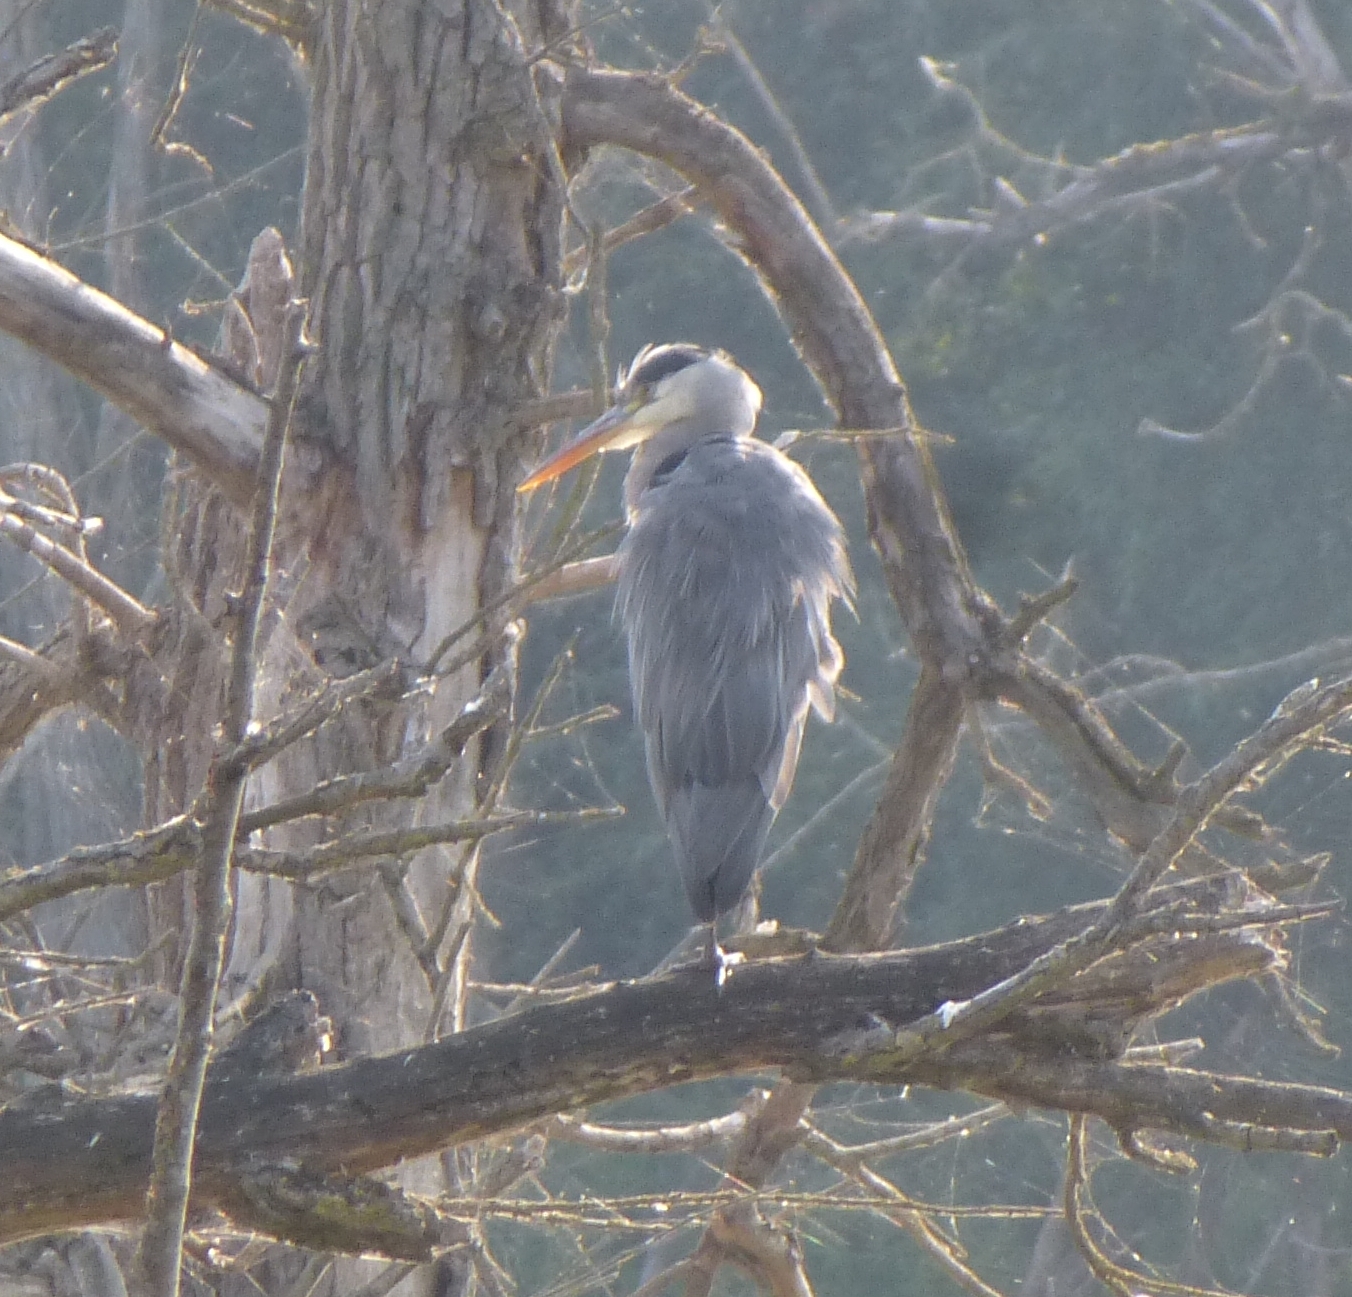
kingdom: Animalia
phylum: Chordata
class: Aves
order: Pelecaniformes
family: Ardeidae
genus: Ardea
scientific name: Ardea cinerea
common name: Grey heron
